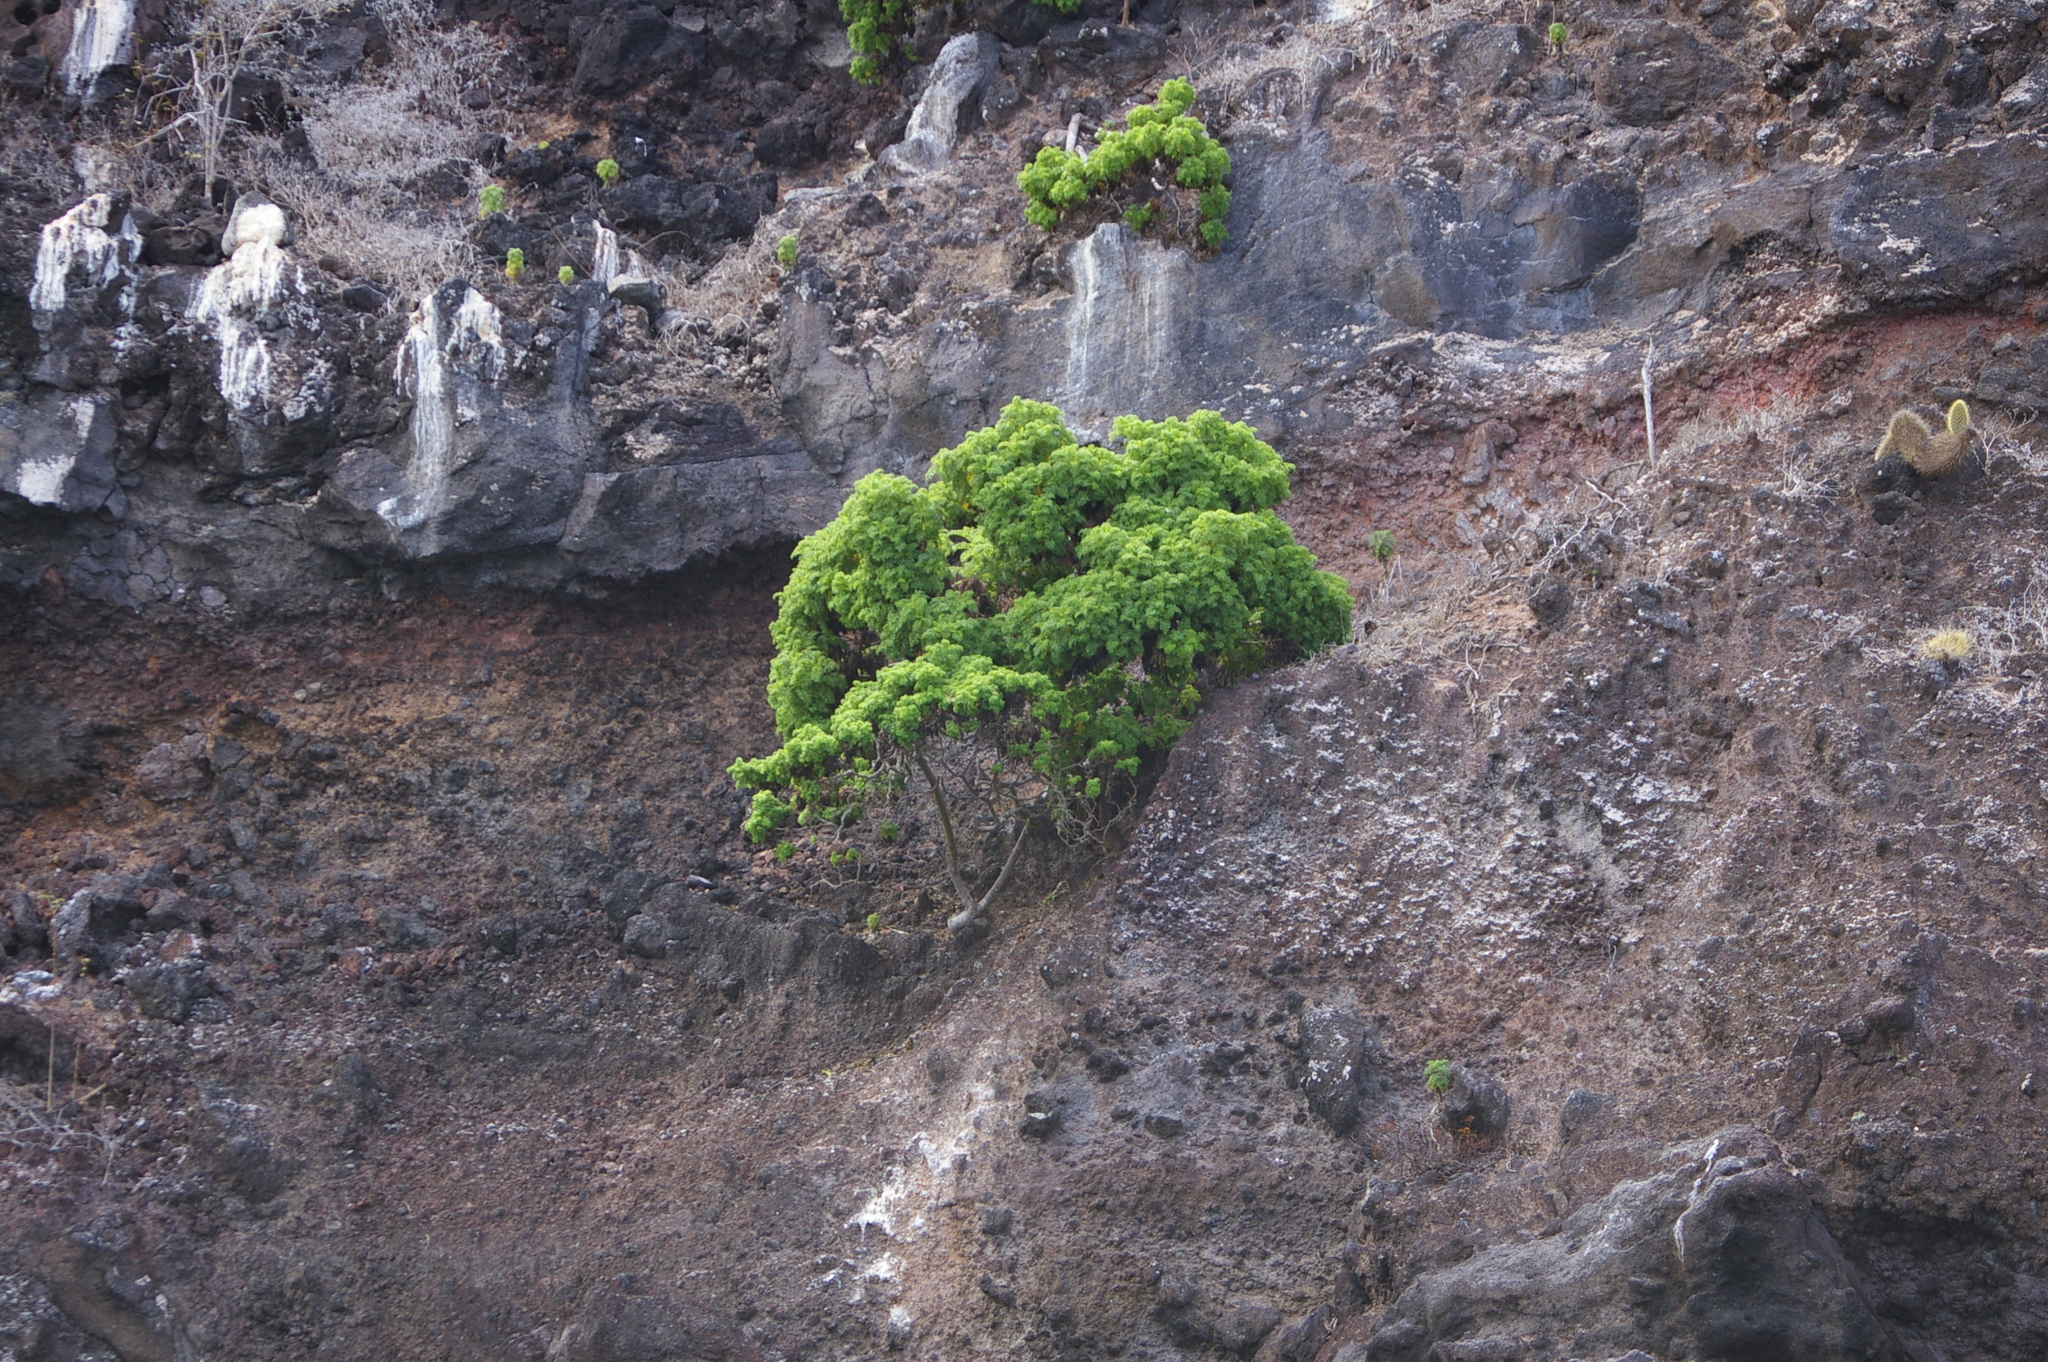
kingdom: Plantae
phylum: Tracheophyta
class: Magnoliopsida
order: Asterales
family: Asteraceae
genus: Scalesia
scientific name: Scalesia helleri
